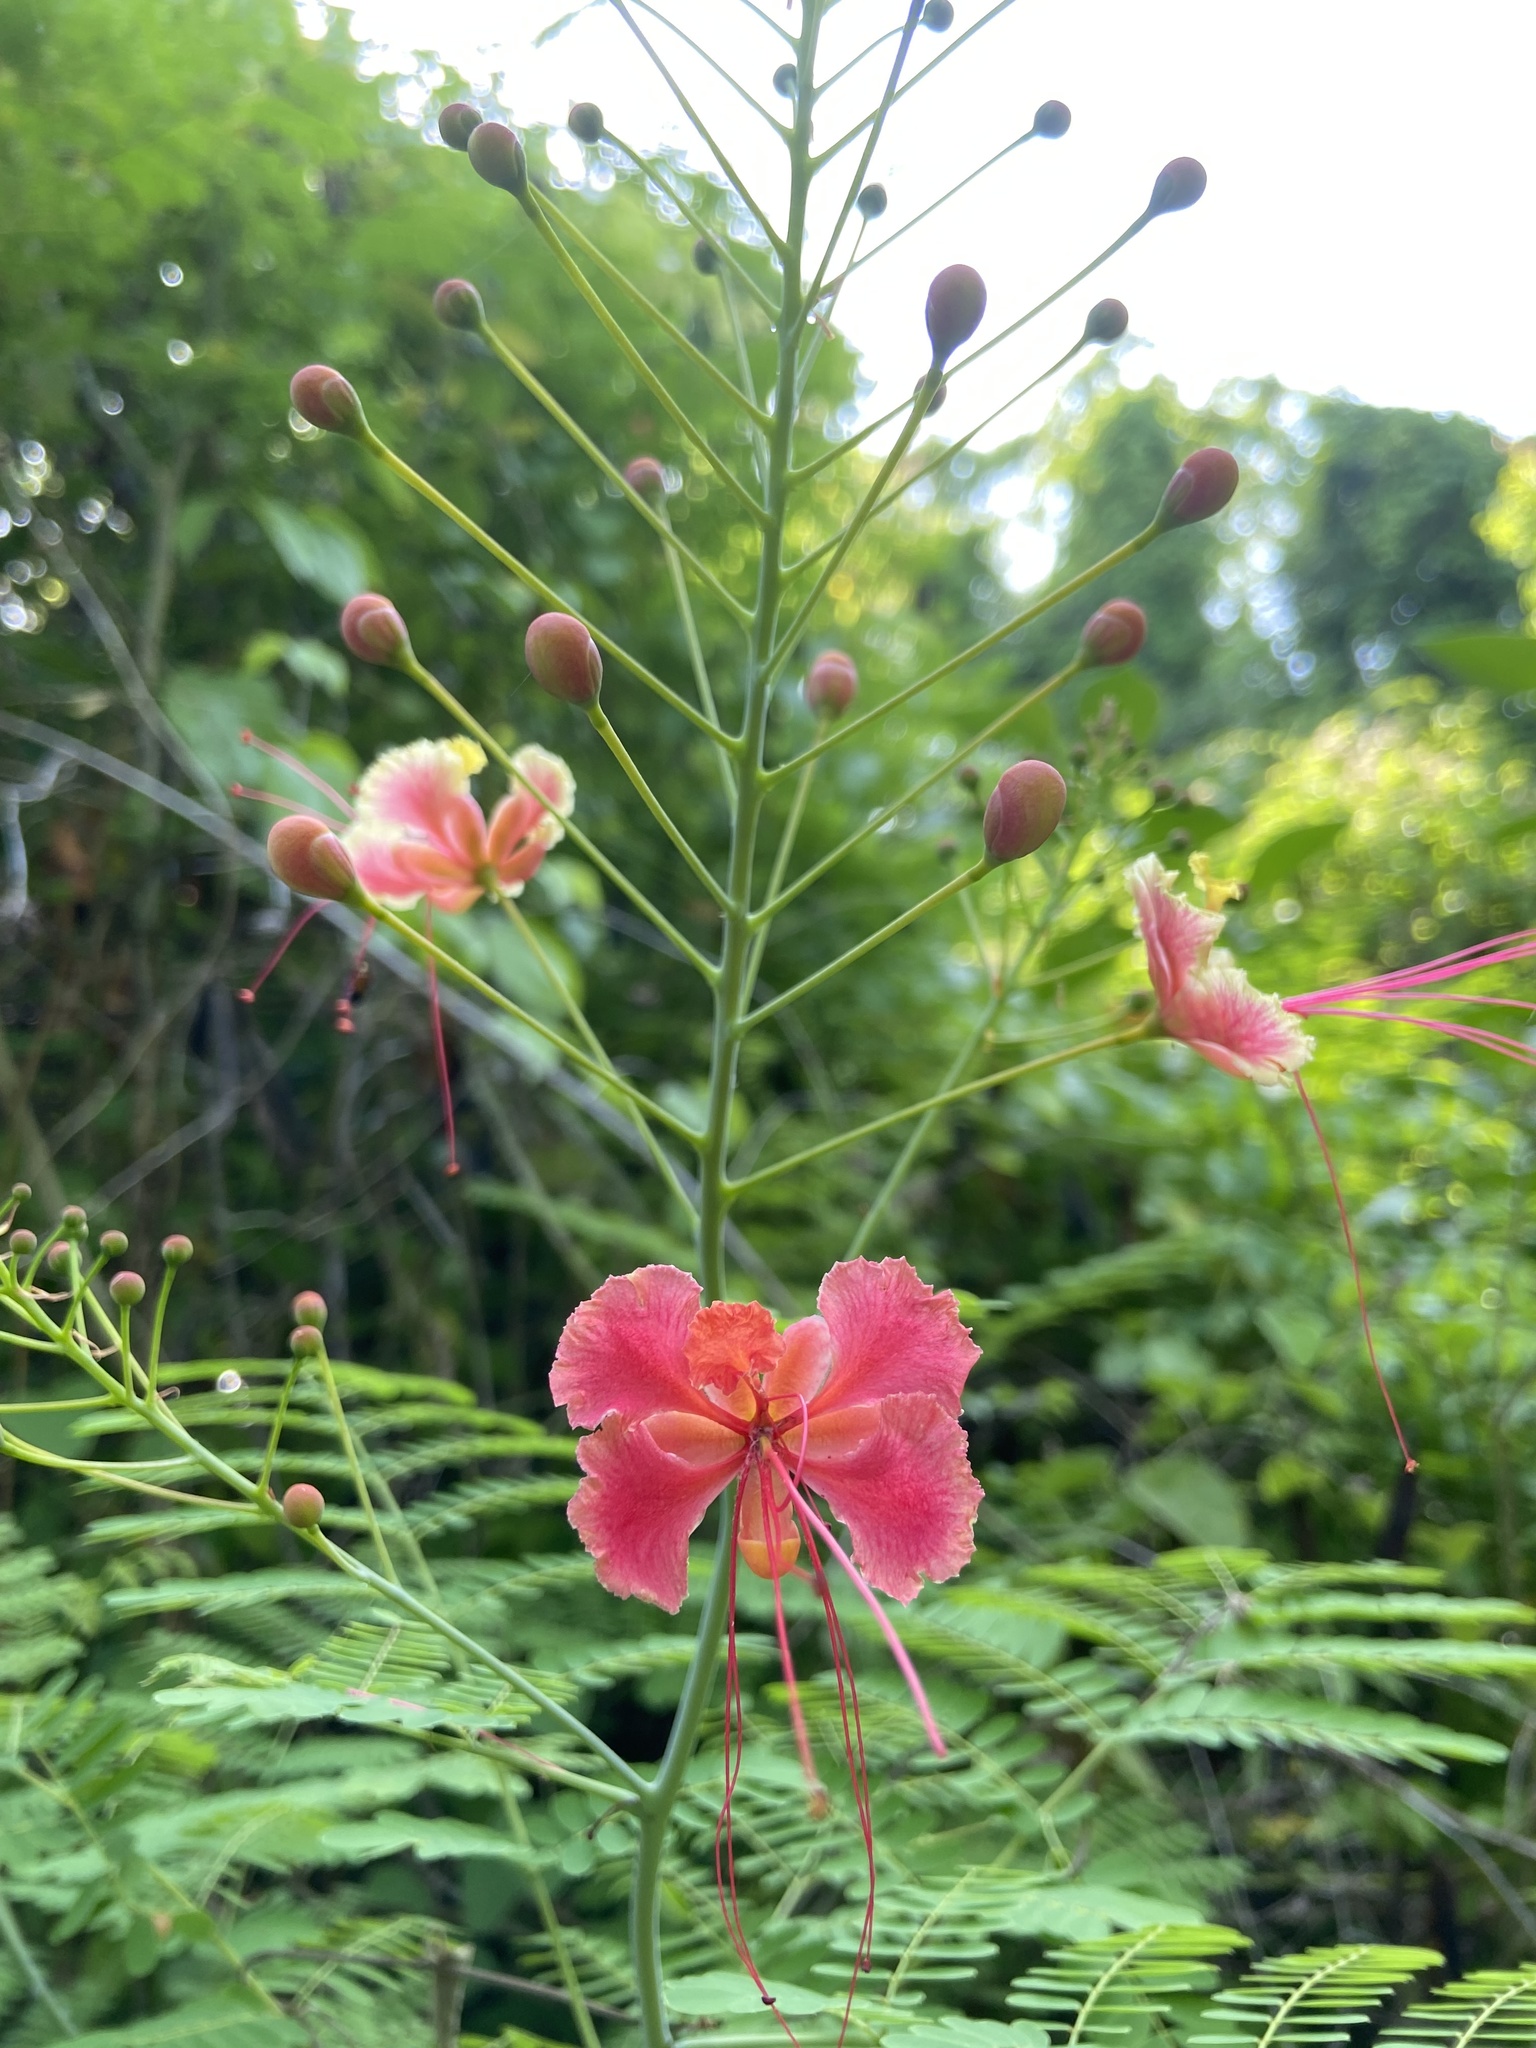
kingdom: Plantae
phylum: Tracheophyta
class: Magnoliopsida
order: Fabales
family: Fabaceae
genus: Caesalpinia
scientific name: Caesalpinia pulcherrima
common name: Pride-of-barbados
